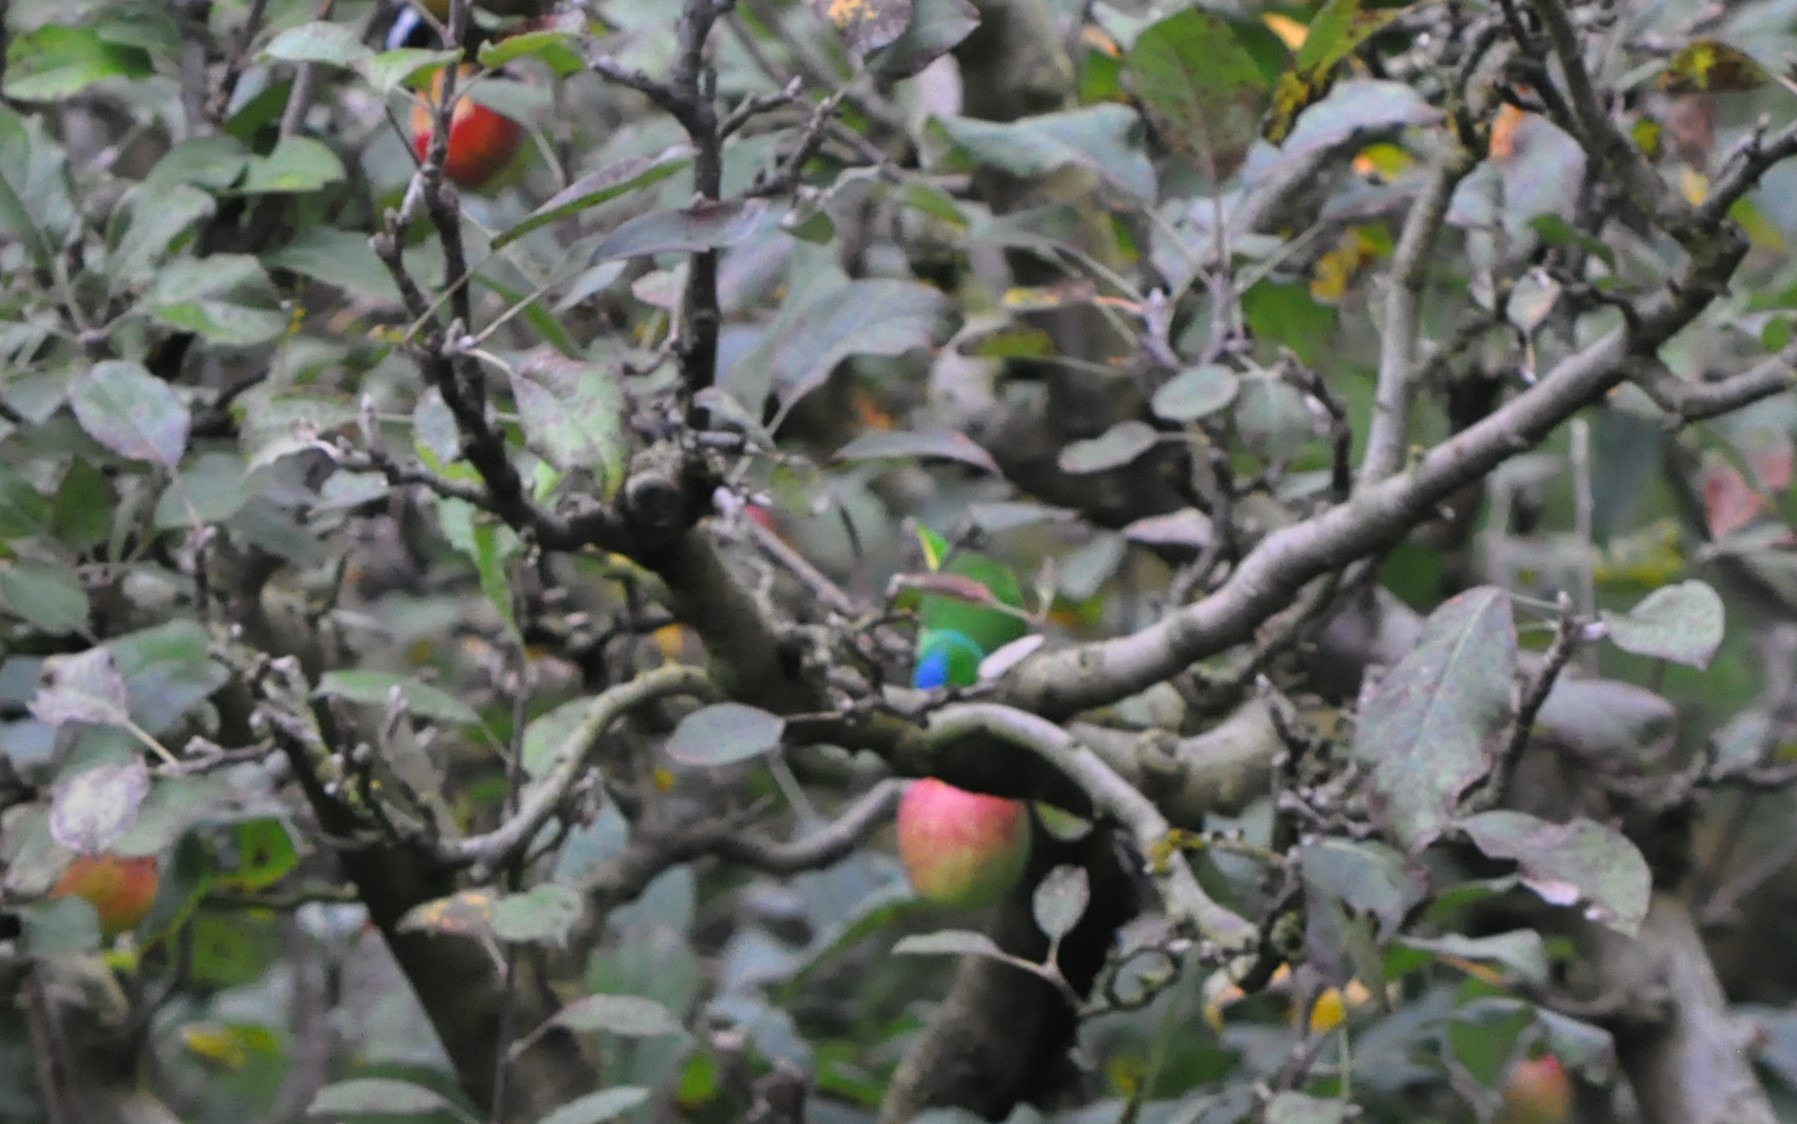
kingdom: Animalia
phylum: Chordata
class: Aves
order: Passeriformes
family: Fringillidae
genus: Chlorophonia
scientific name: Chlorophonia callophrys
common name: Golden-browed chlorophonia
